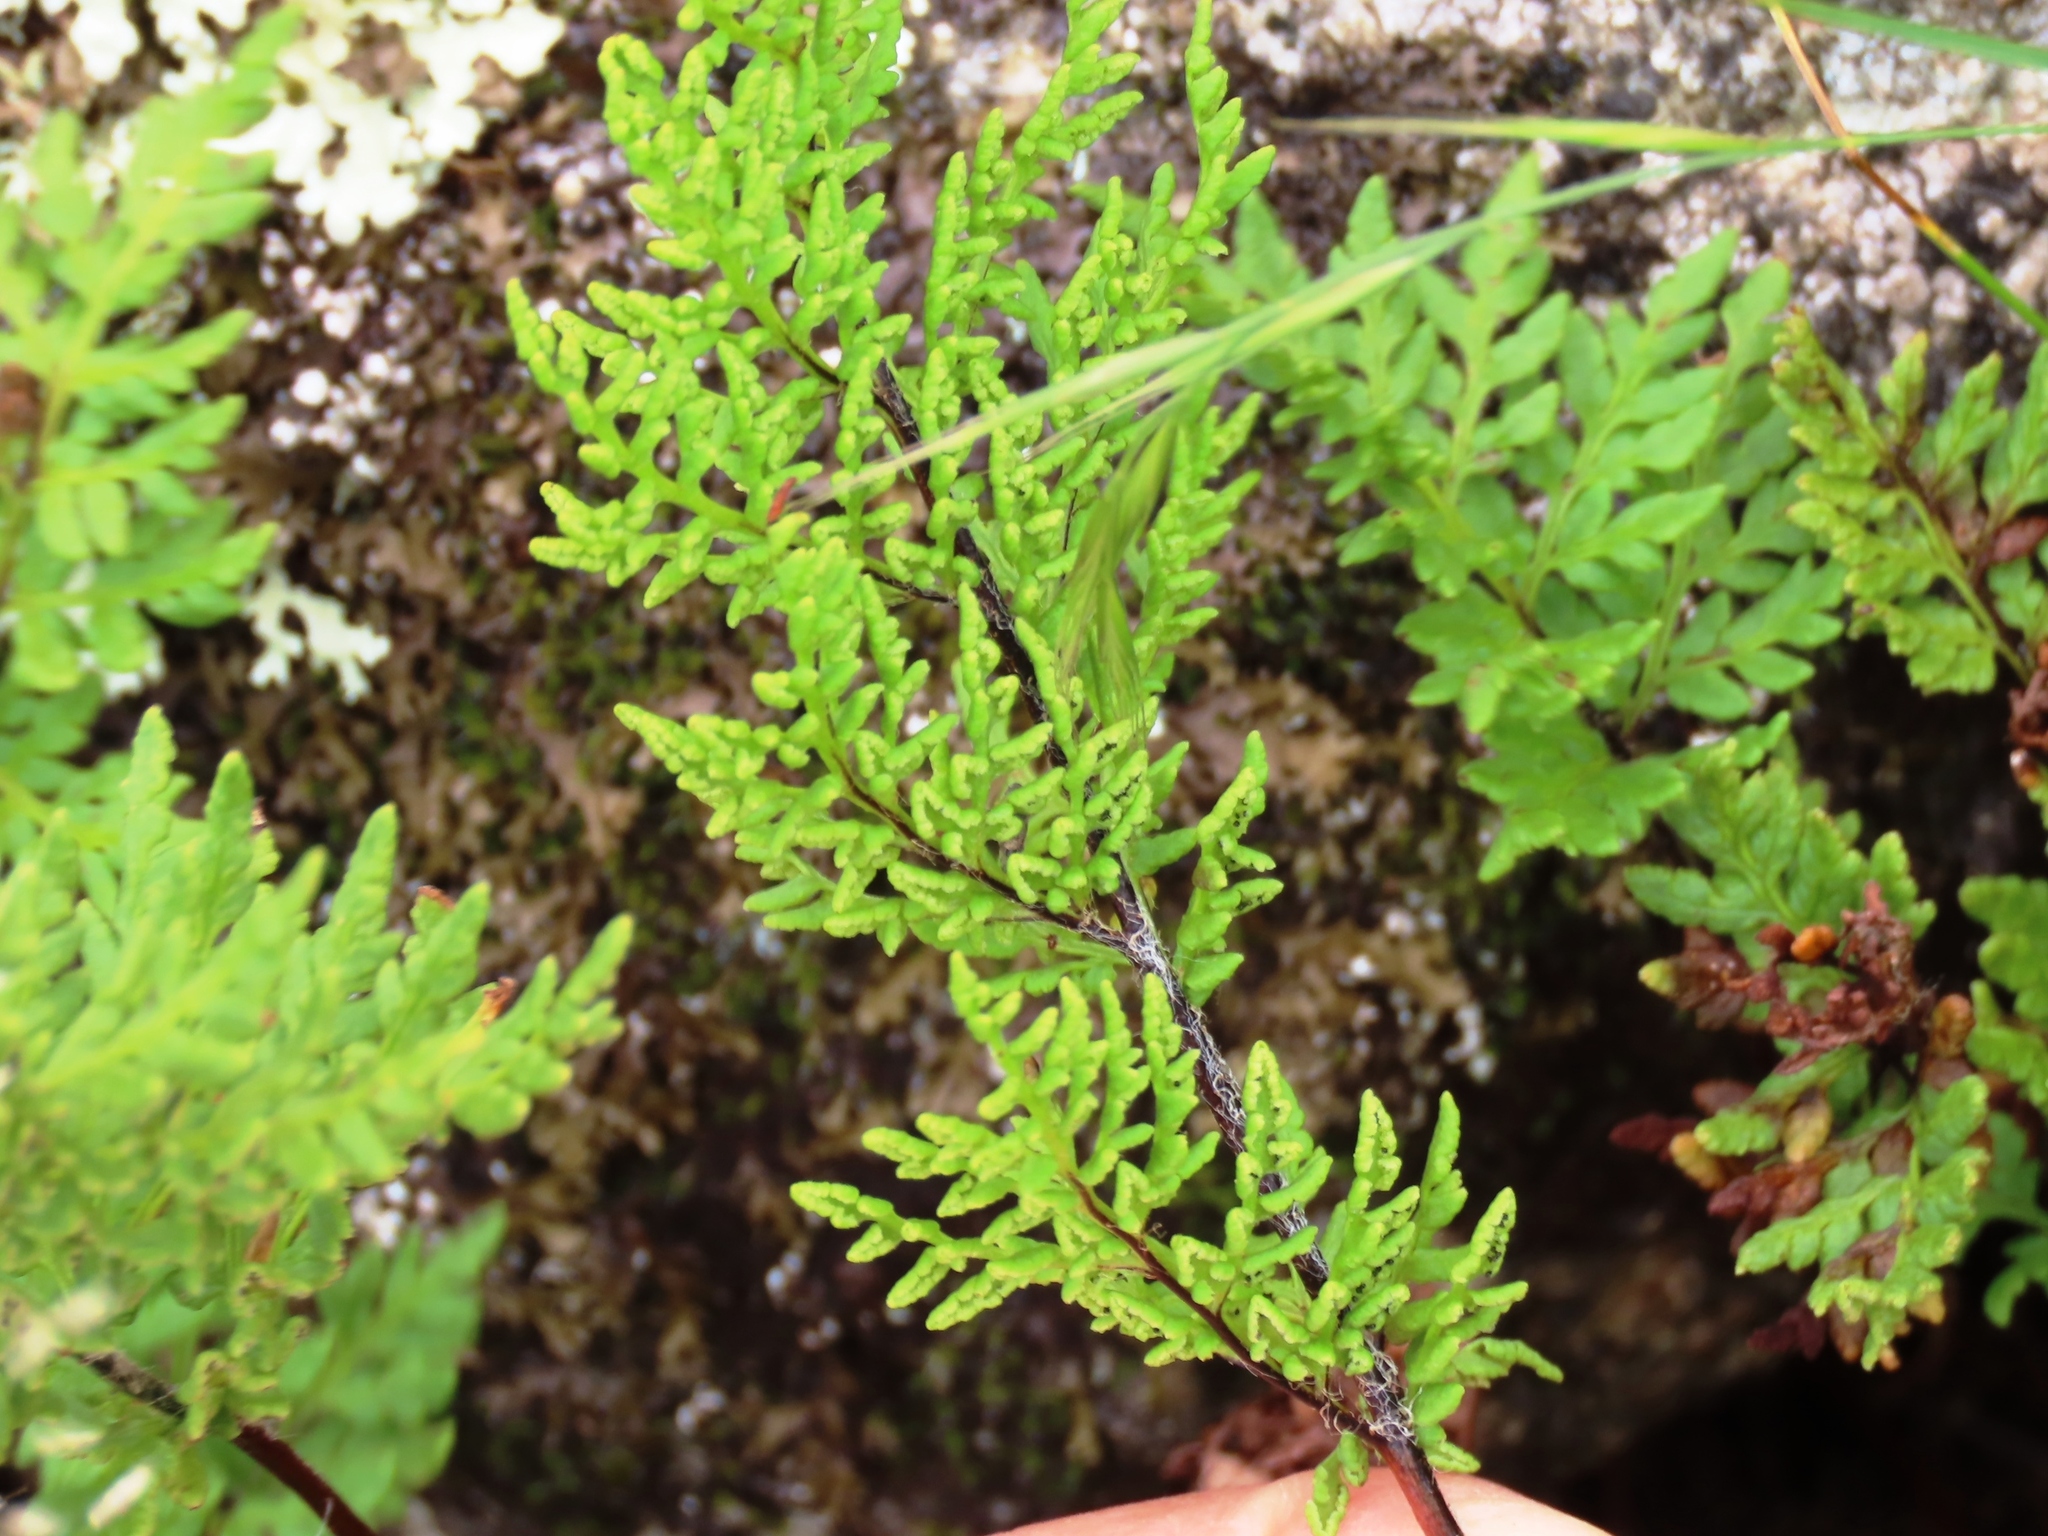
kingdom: Plantae
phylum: Tracheophyta
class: Polypodiopsida
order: Polypodiales
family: Pteridaceae
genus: Cheilanthes
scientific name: Cheilanthes austrotenuifolia
